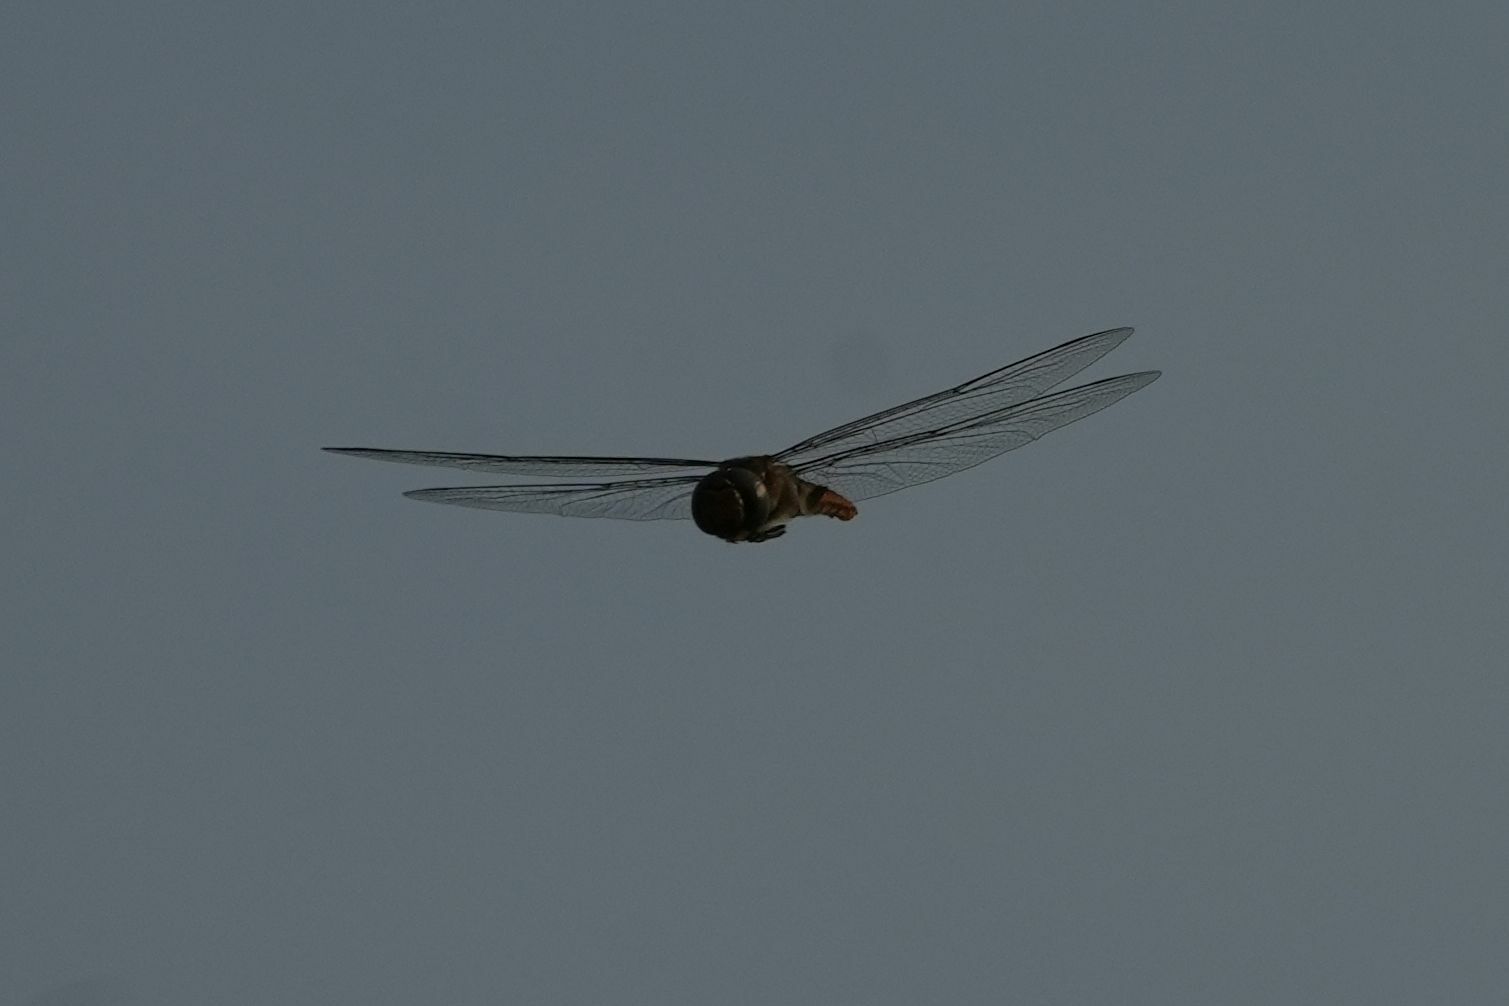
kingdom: Animalia
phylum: Arthropoda
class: Insecta
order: Odonata
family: Libellulidae
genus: Pantala
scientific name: Pantala hymenaea
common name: Spot-winged glider
